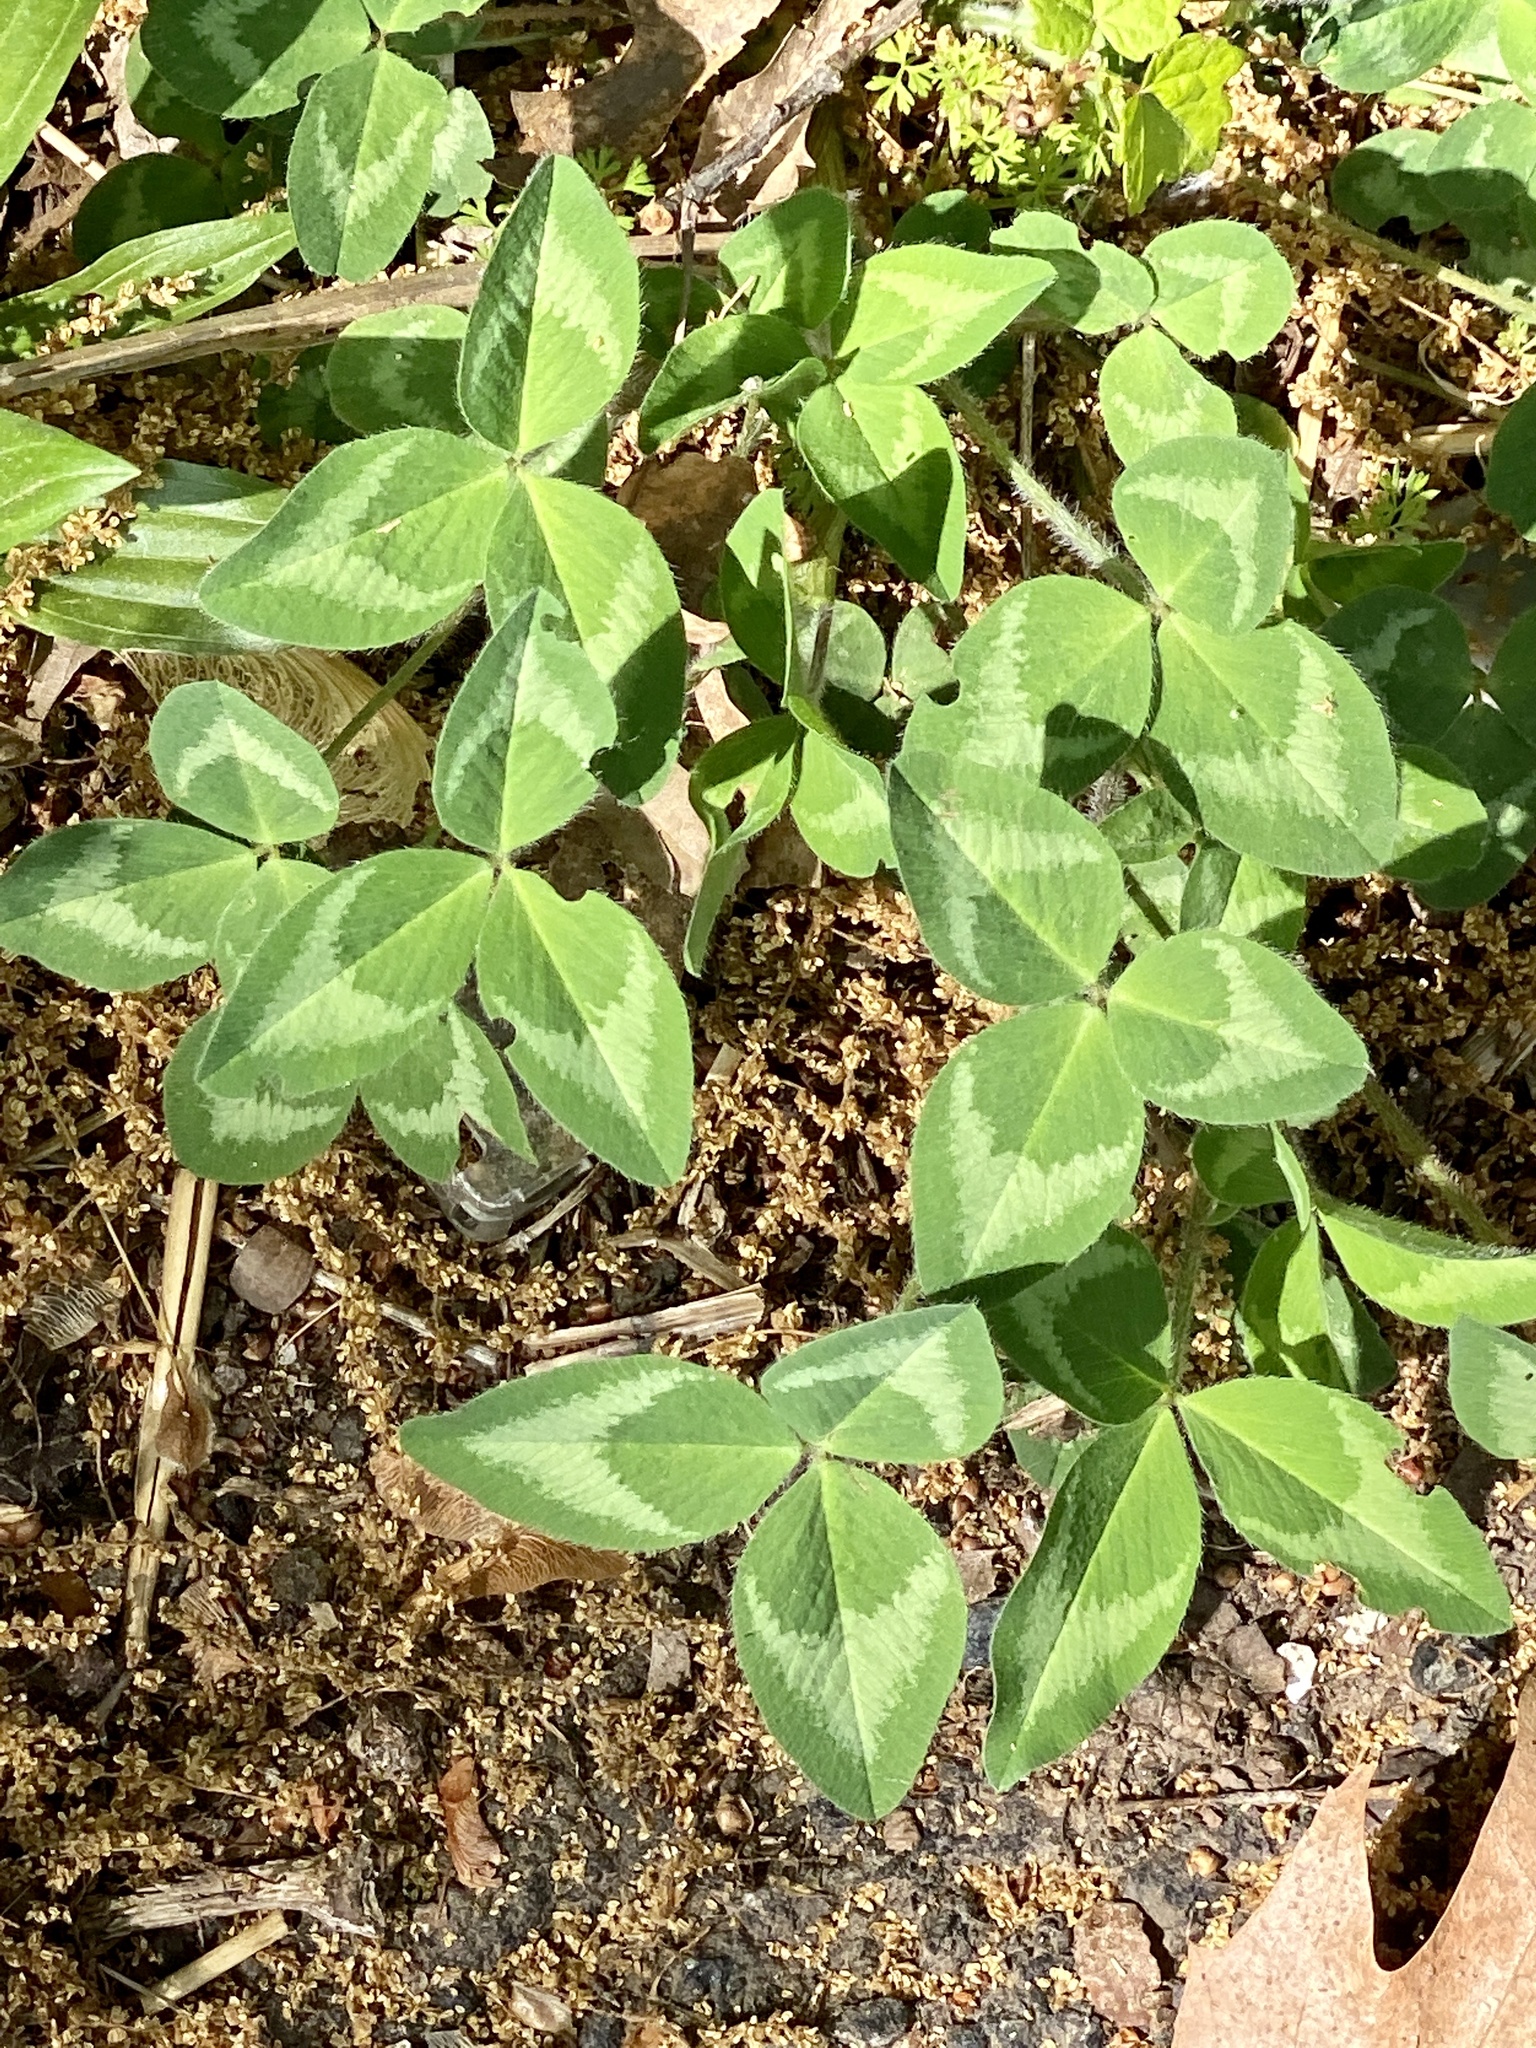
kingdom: Plantae
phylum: Tracheophyta
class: Magnoliopsida
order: Fabales
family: Fabaceae
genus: Trifolium
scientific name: Trifolium pratense
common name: Red clover
